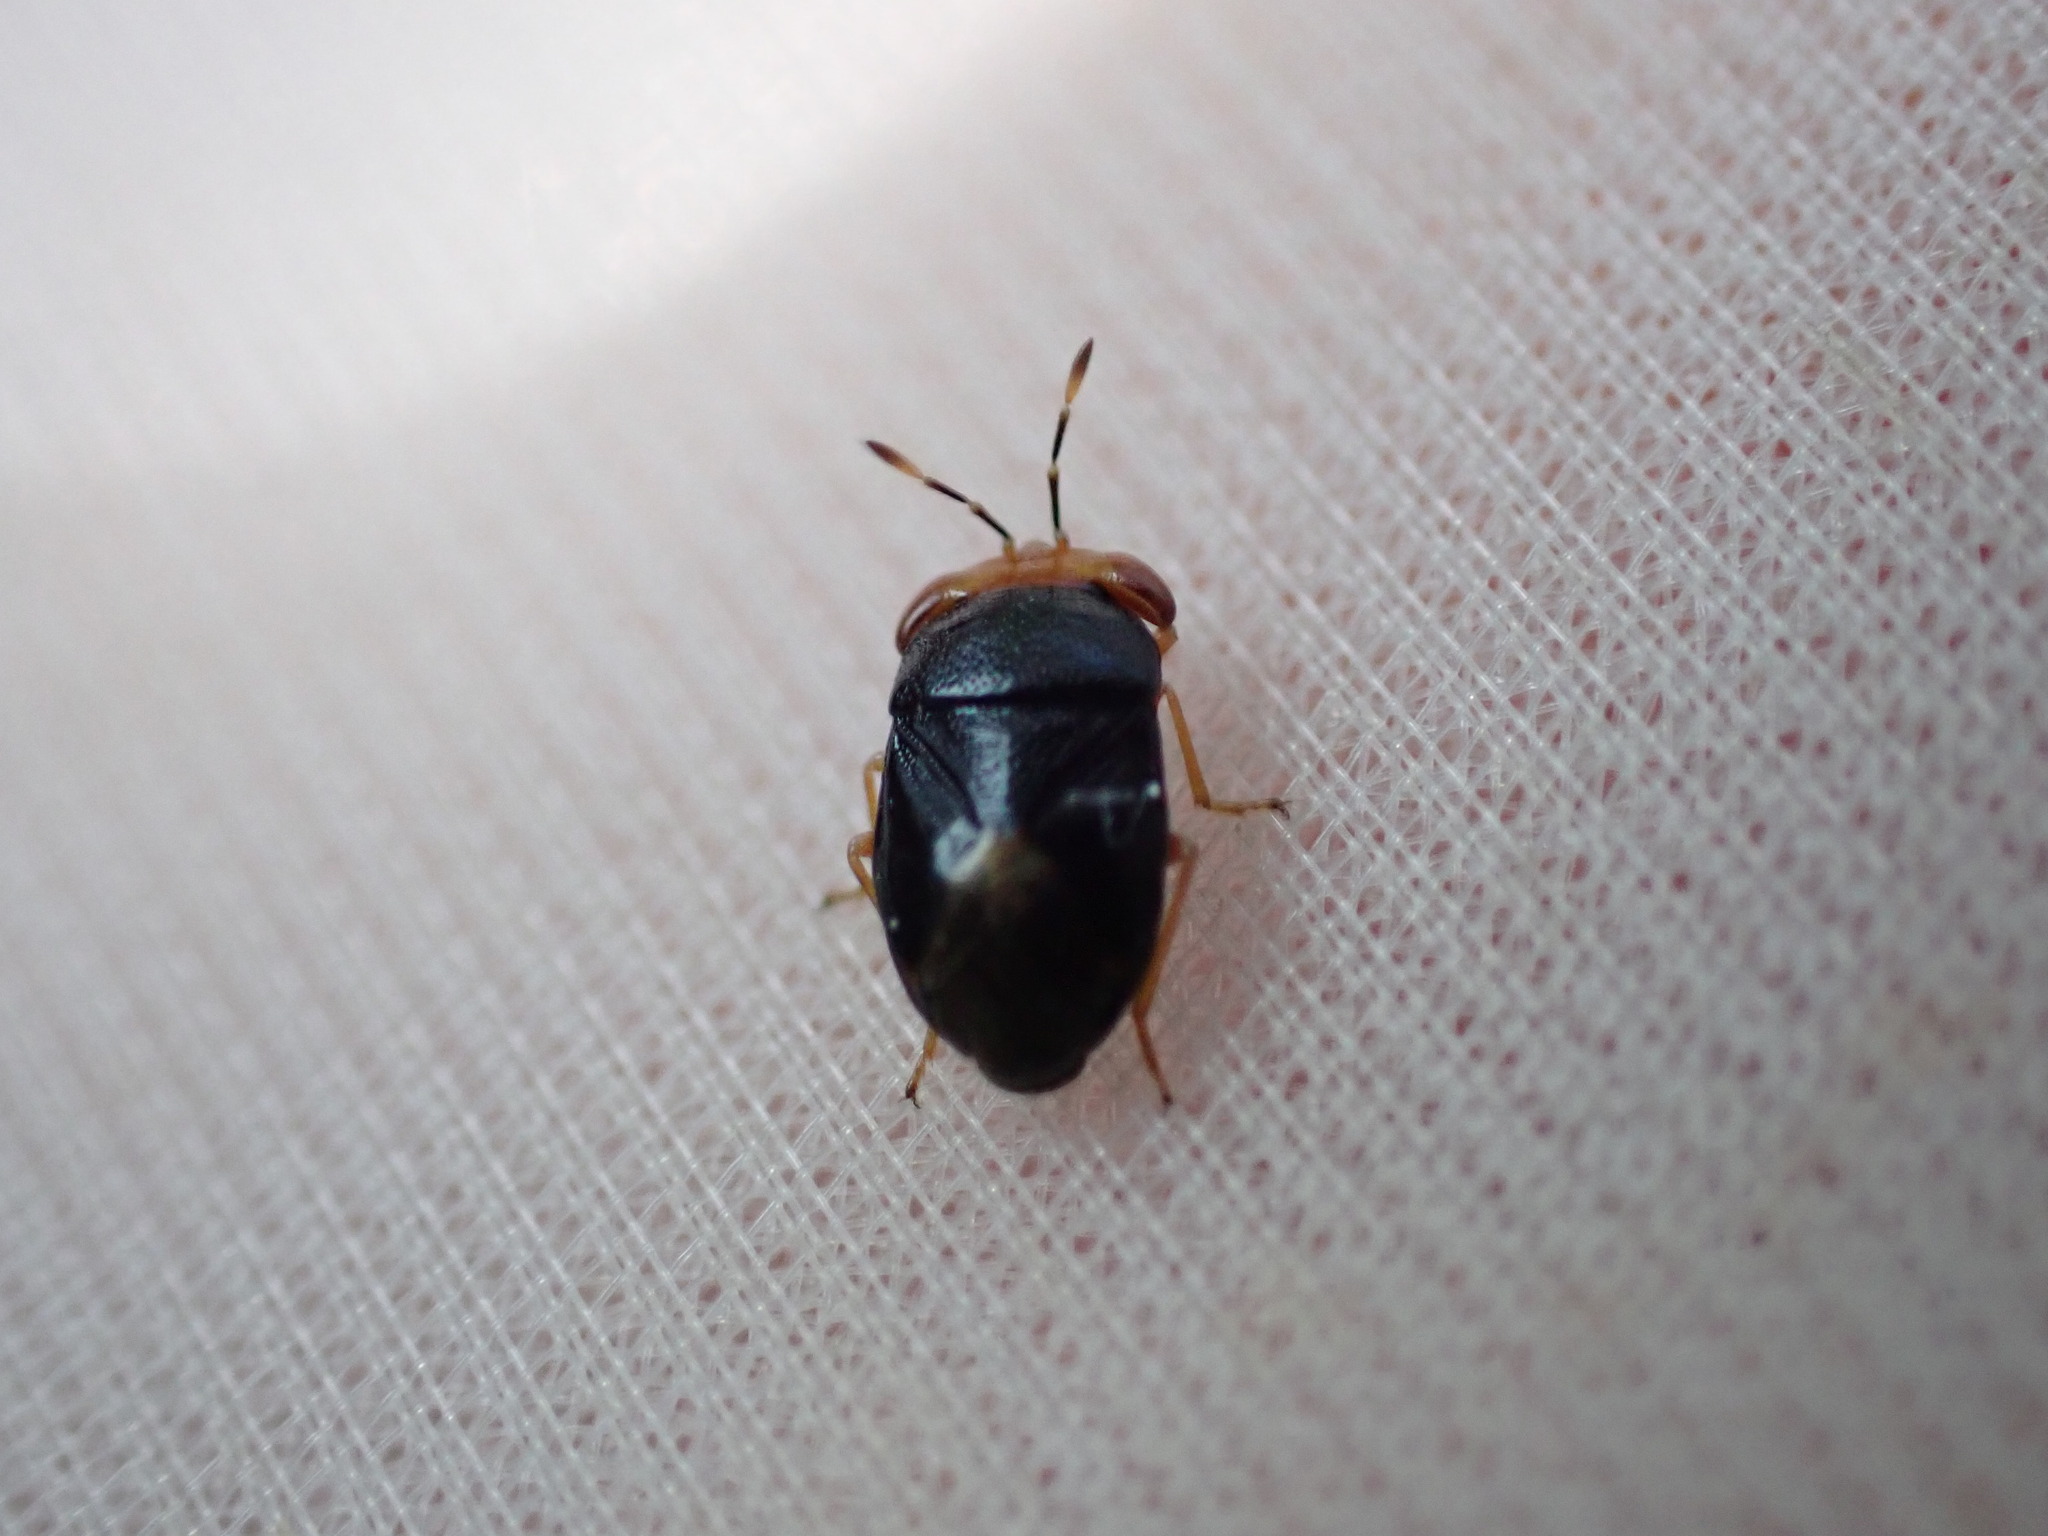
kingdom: Animalia
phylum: Arthropoda
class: Insecta
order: Hemiptera
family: Geocoridae
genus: Geocoris
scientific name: Geocoris erythrocephala
